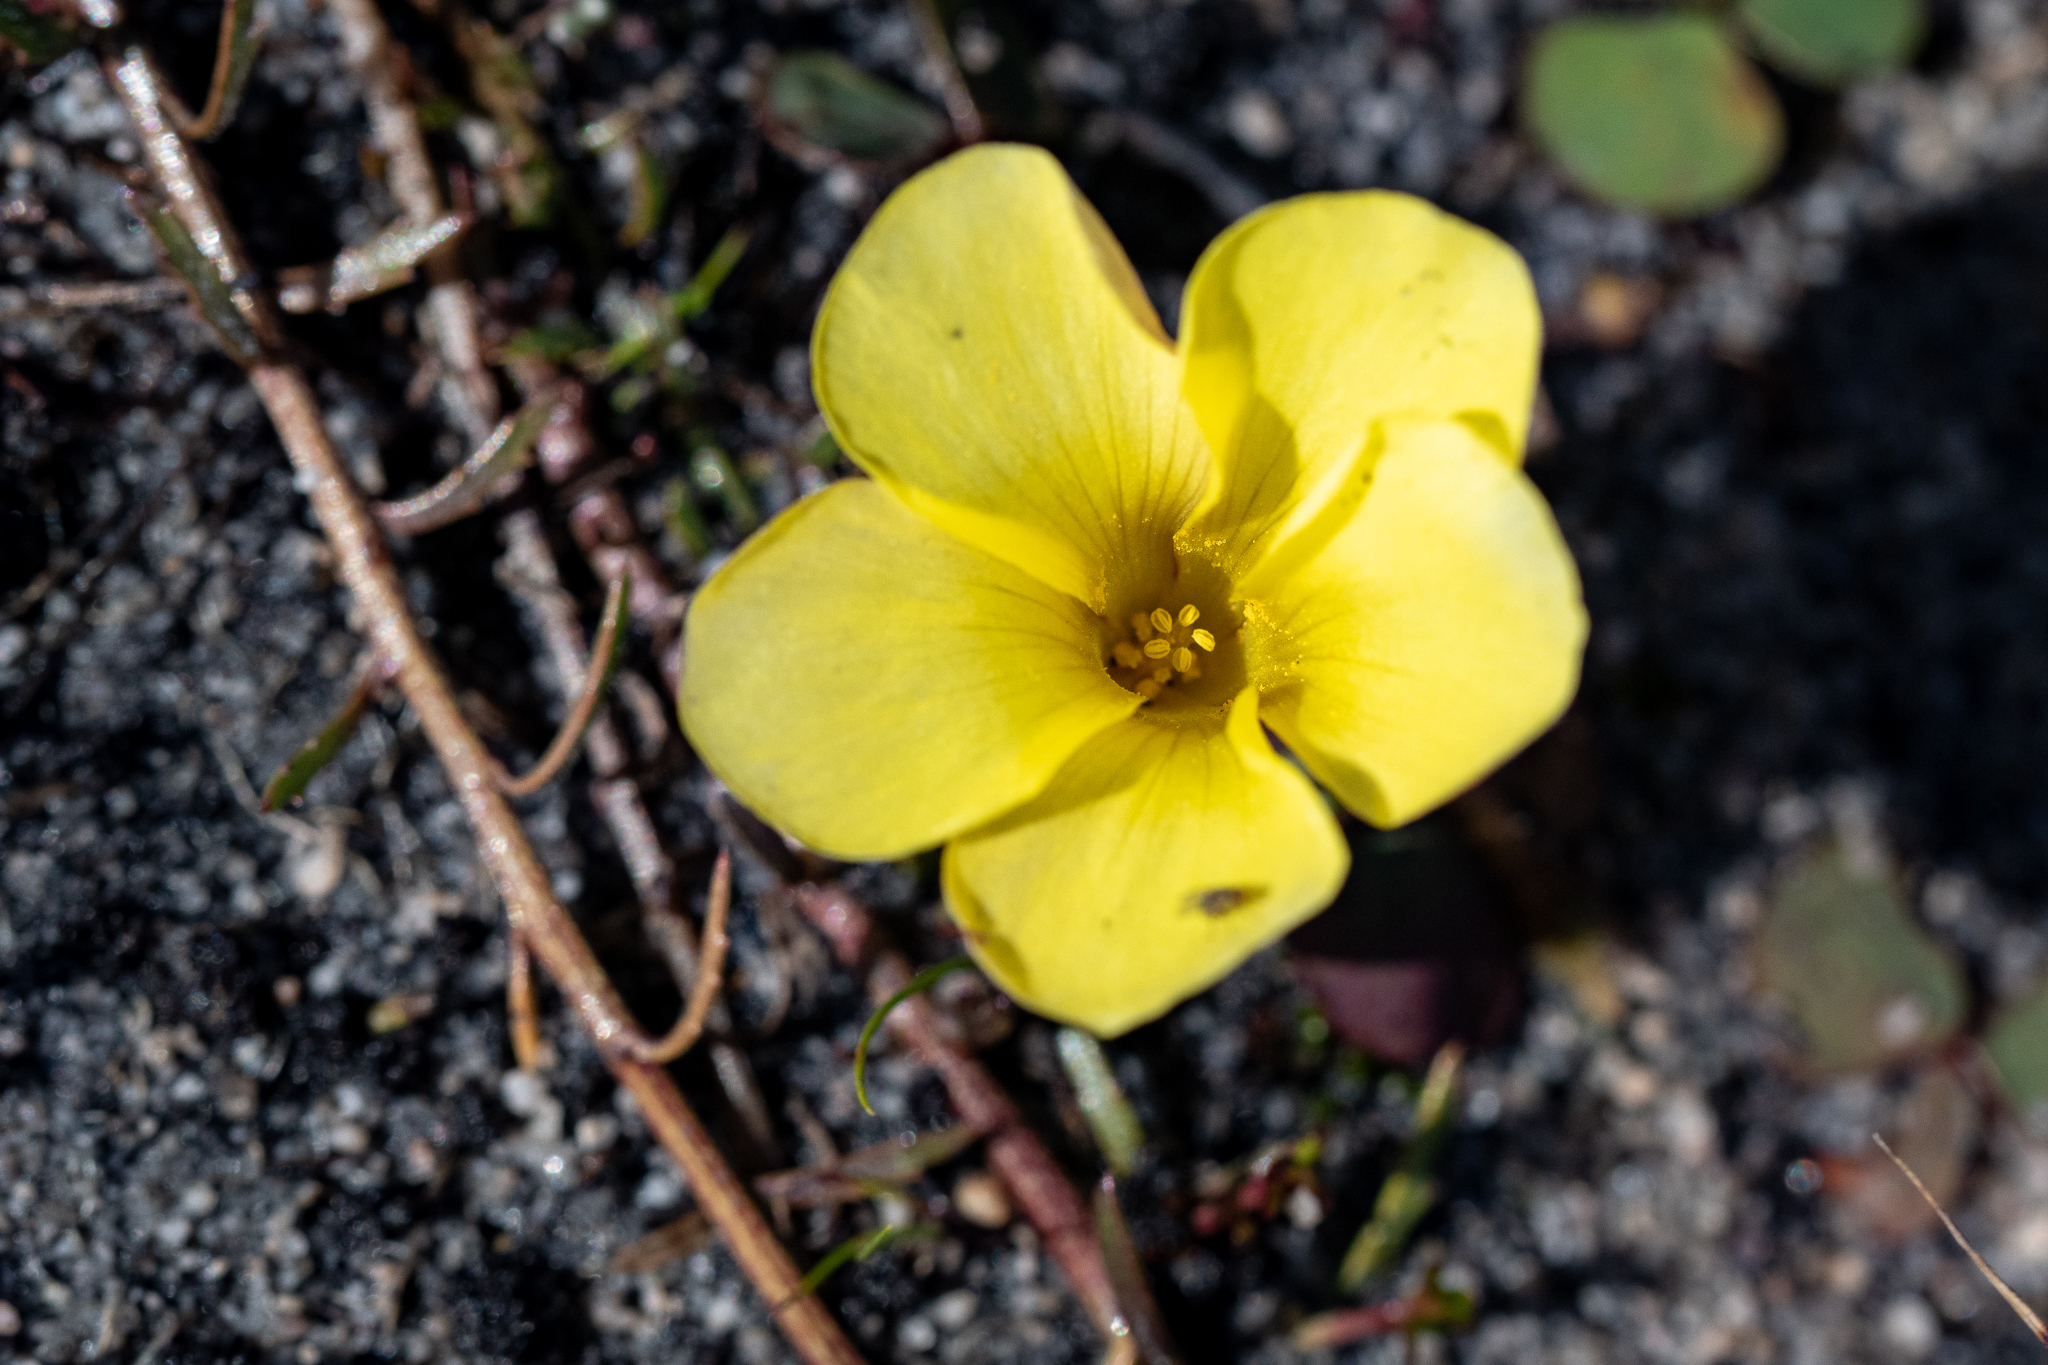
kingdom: Plantae
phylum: Tracheophyta
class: Magnoliopsida
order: Oxalidales
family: Oxalidaceae
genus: Oxalis
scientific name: Oxalis luteola
